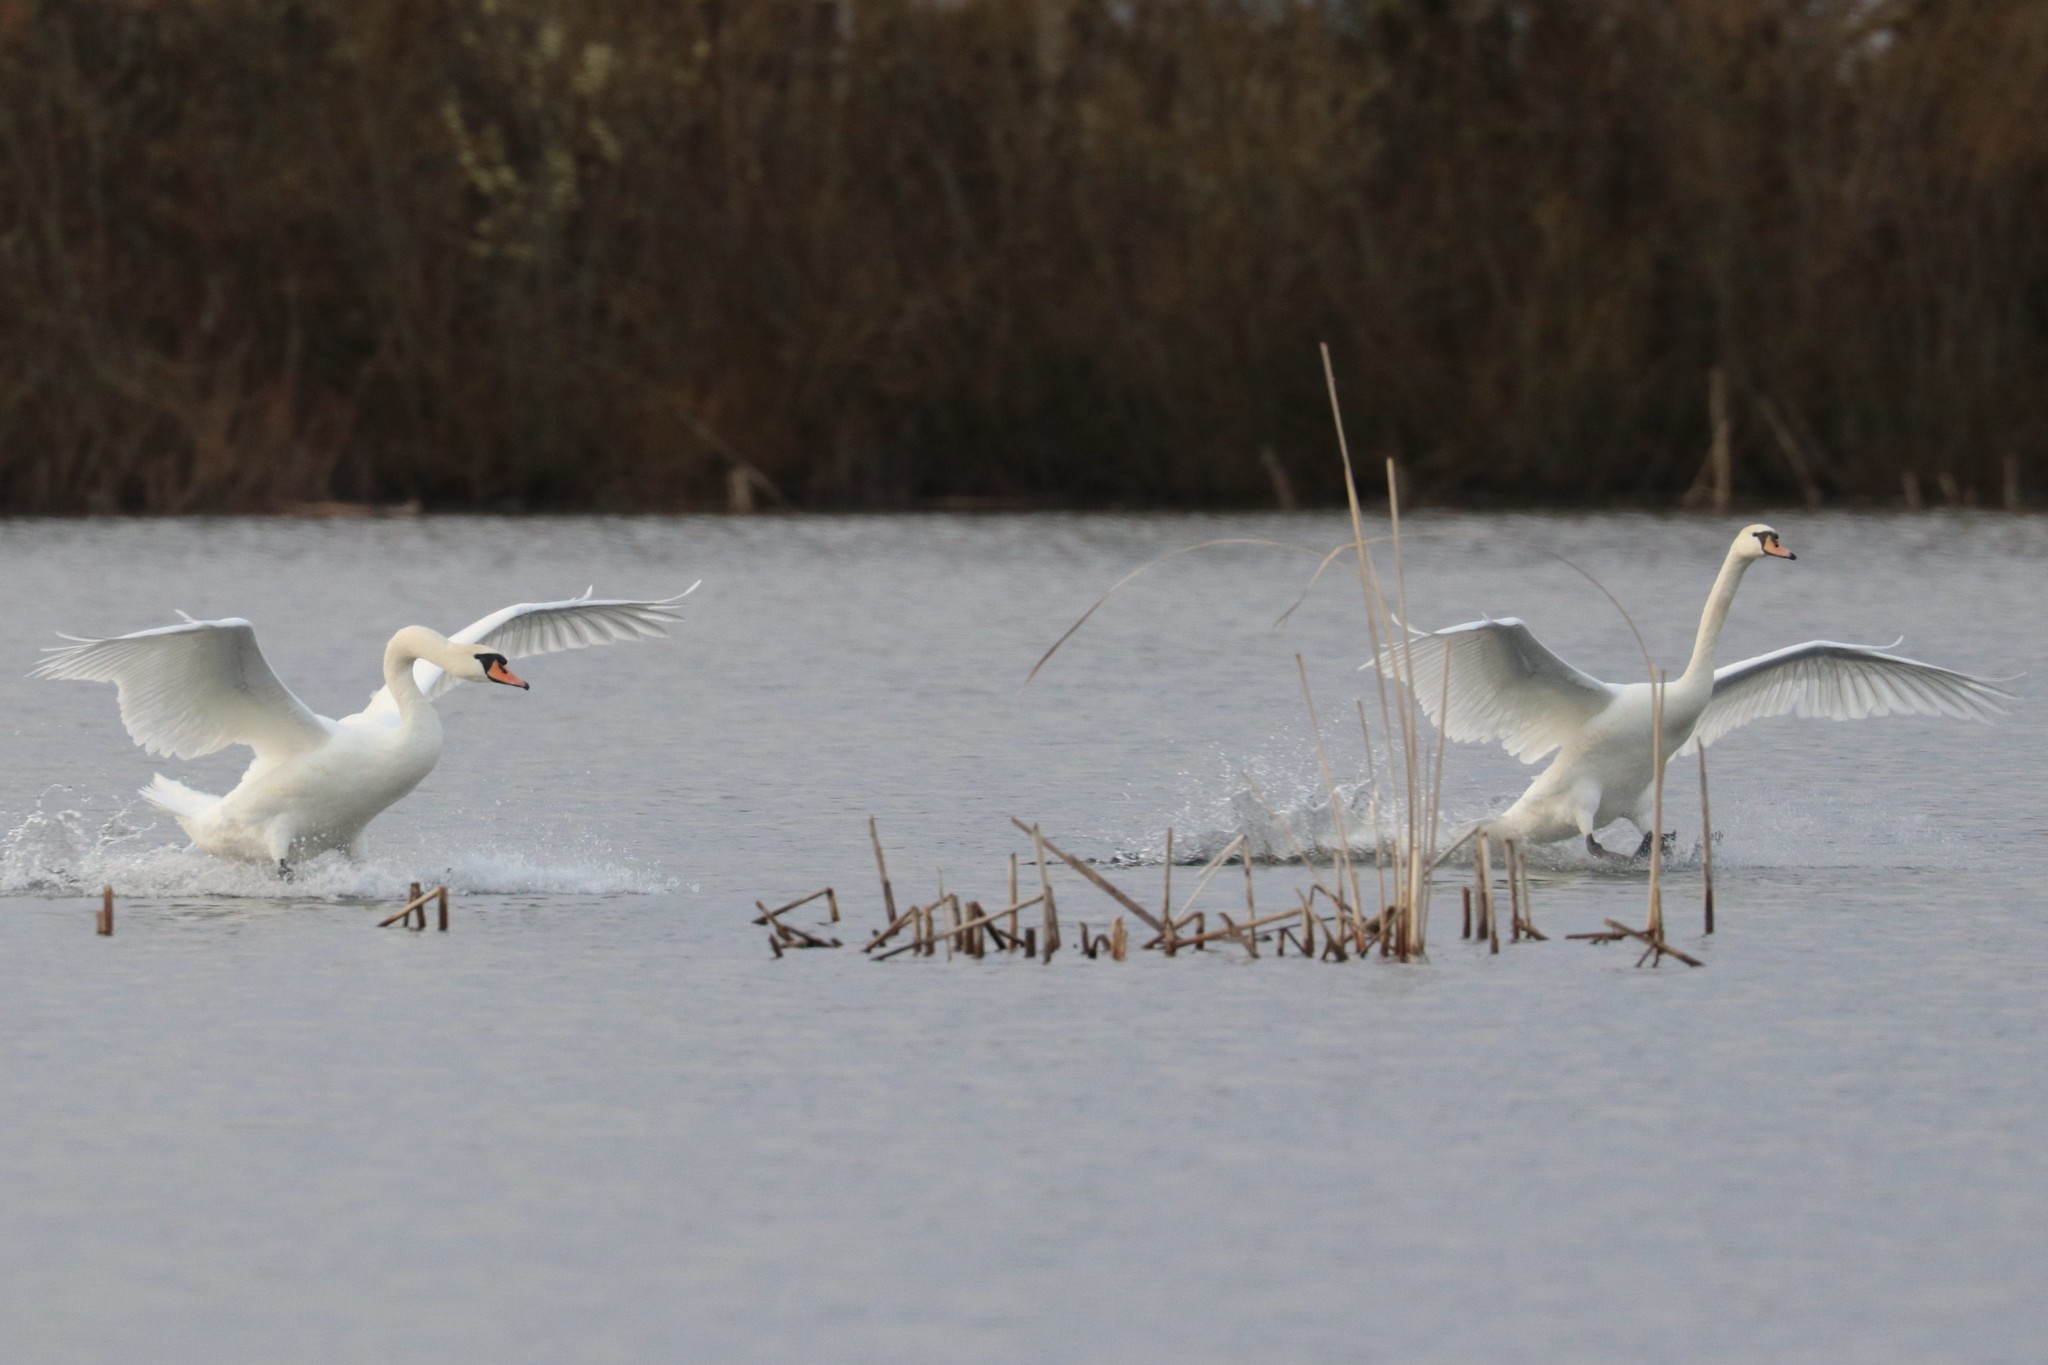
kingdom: Animalia
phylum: Chordata
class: Aves
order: Anseriformes
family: Anatidae
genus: Cygnus
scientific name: Cygnus olor
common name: Mute swan
